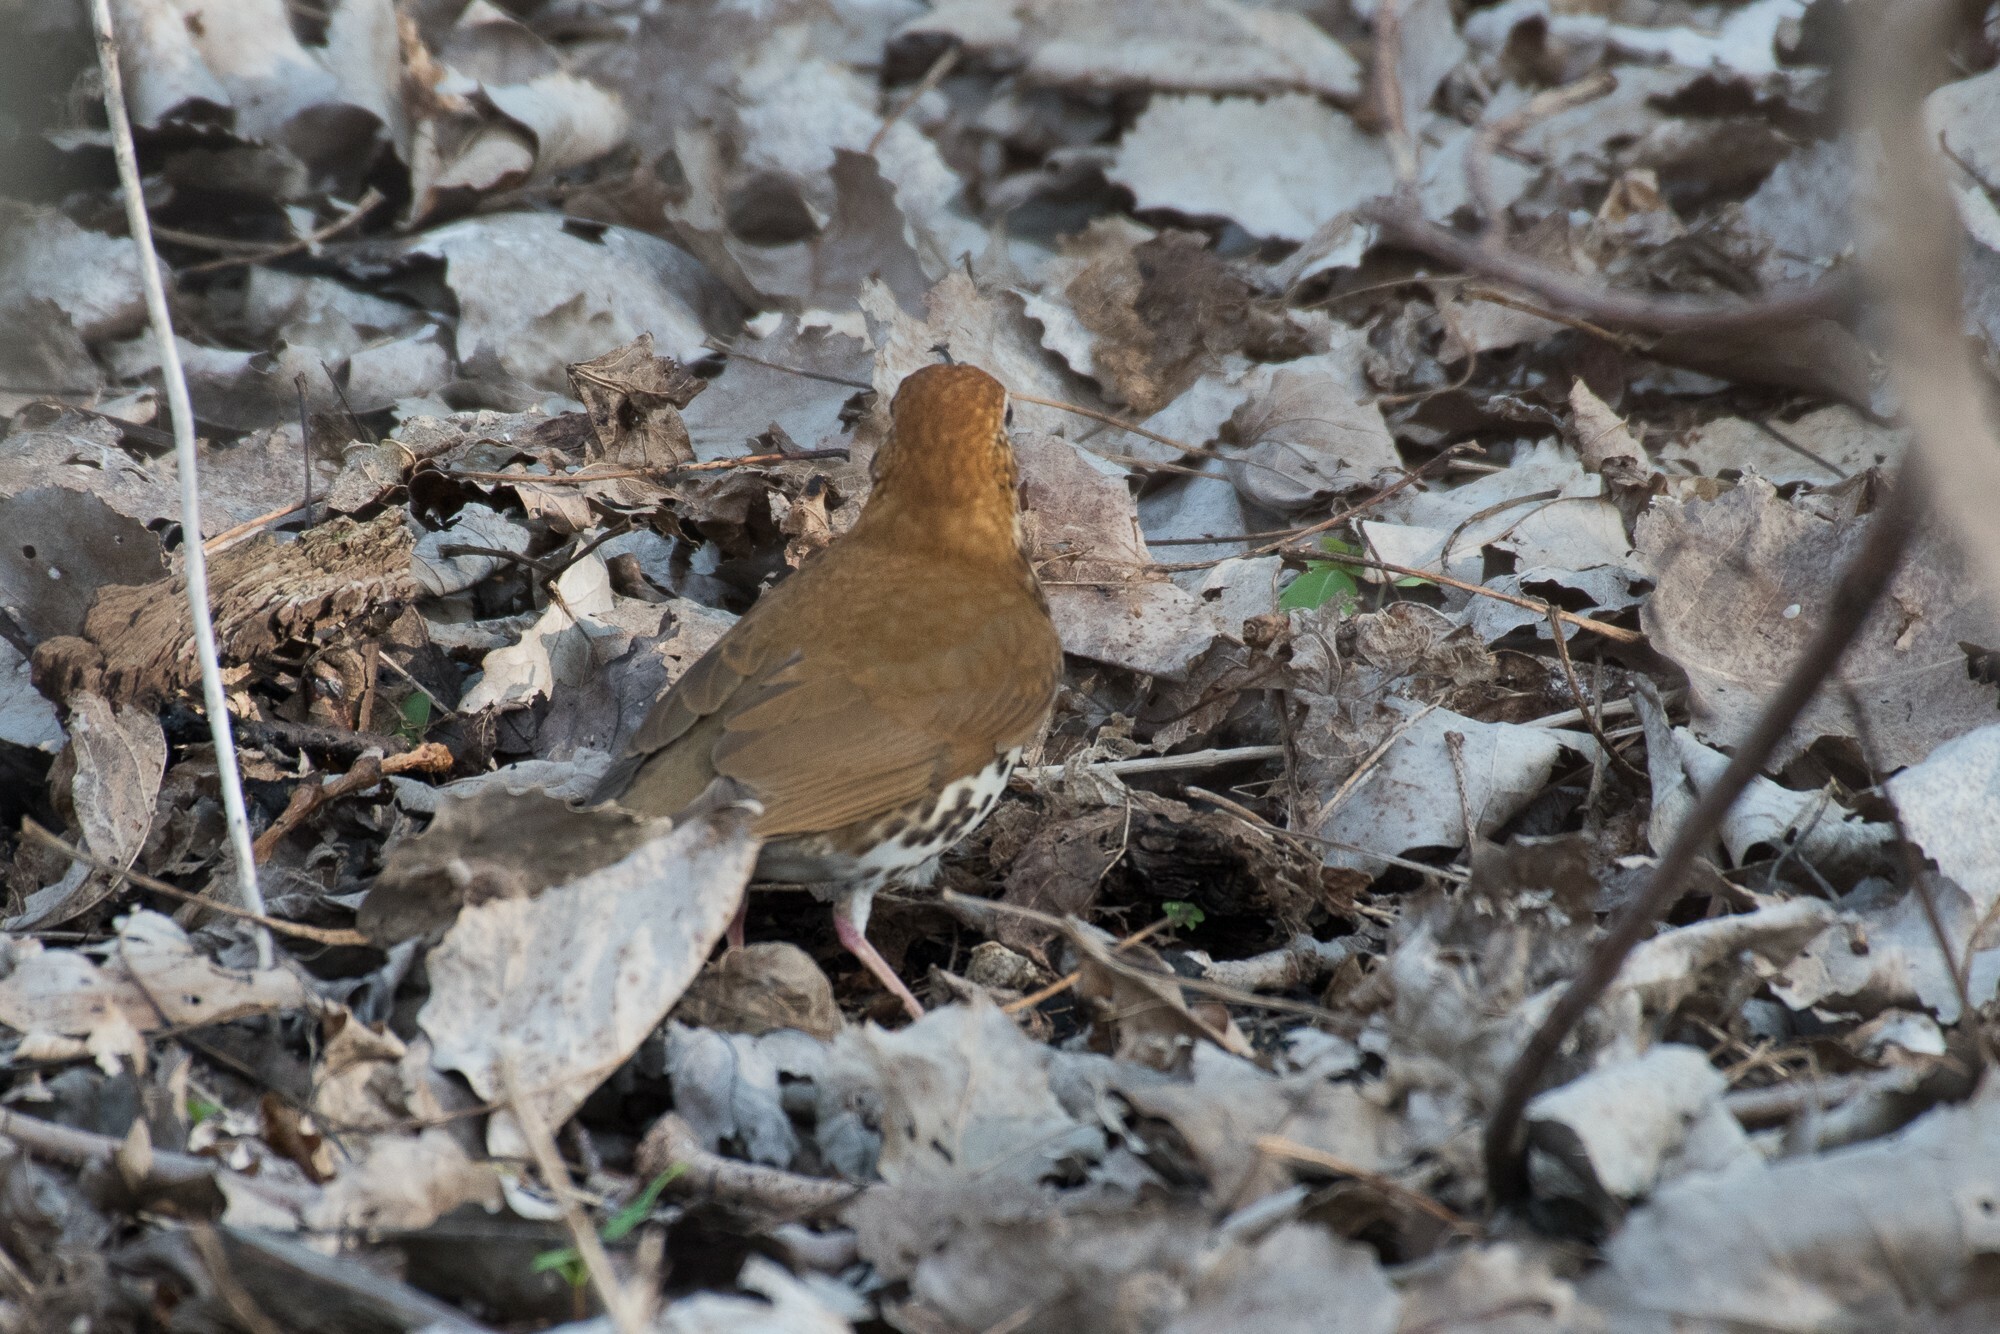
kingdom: Animalia
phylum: Chordata
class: Aves
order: Passeriformes
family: Turdidae
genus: Hylocichla
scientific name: Hylocichla mustelina
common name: Wood thrush
